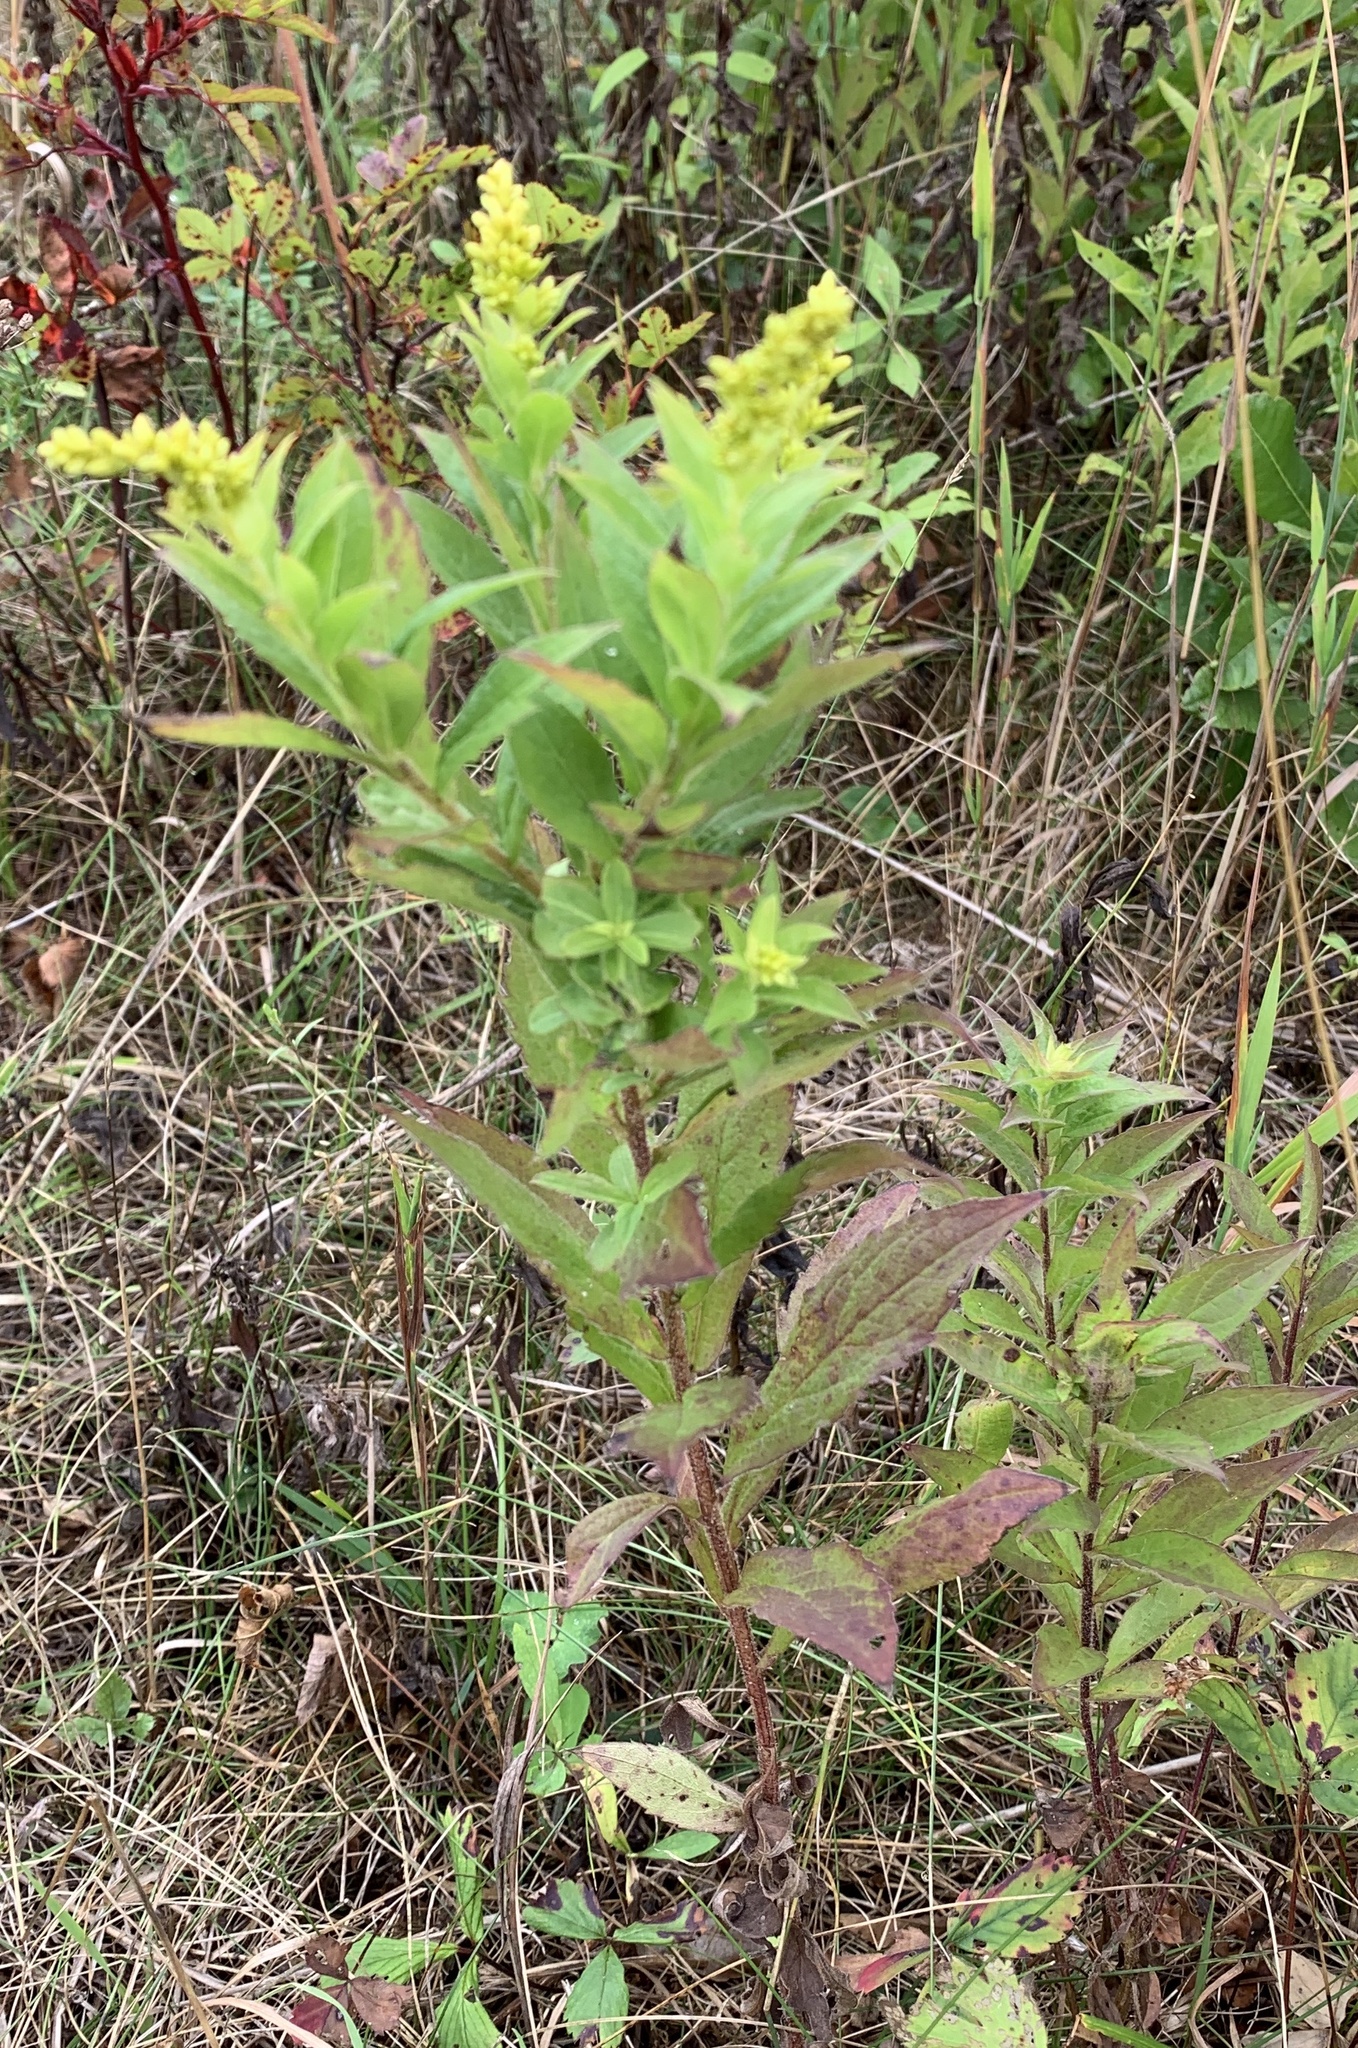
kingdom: Plantae
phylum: Tracheophyta
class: Magnoliopsida
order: Asterales
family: Asteraceae
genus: Solidago
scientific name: Solidago rugosa
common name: Rough-stemmed goldenrod
